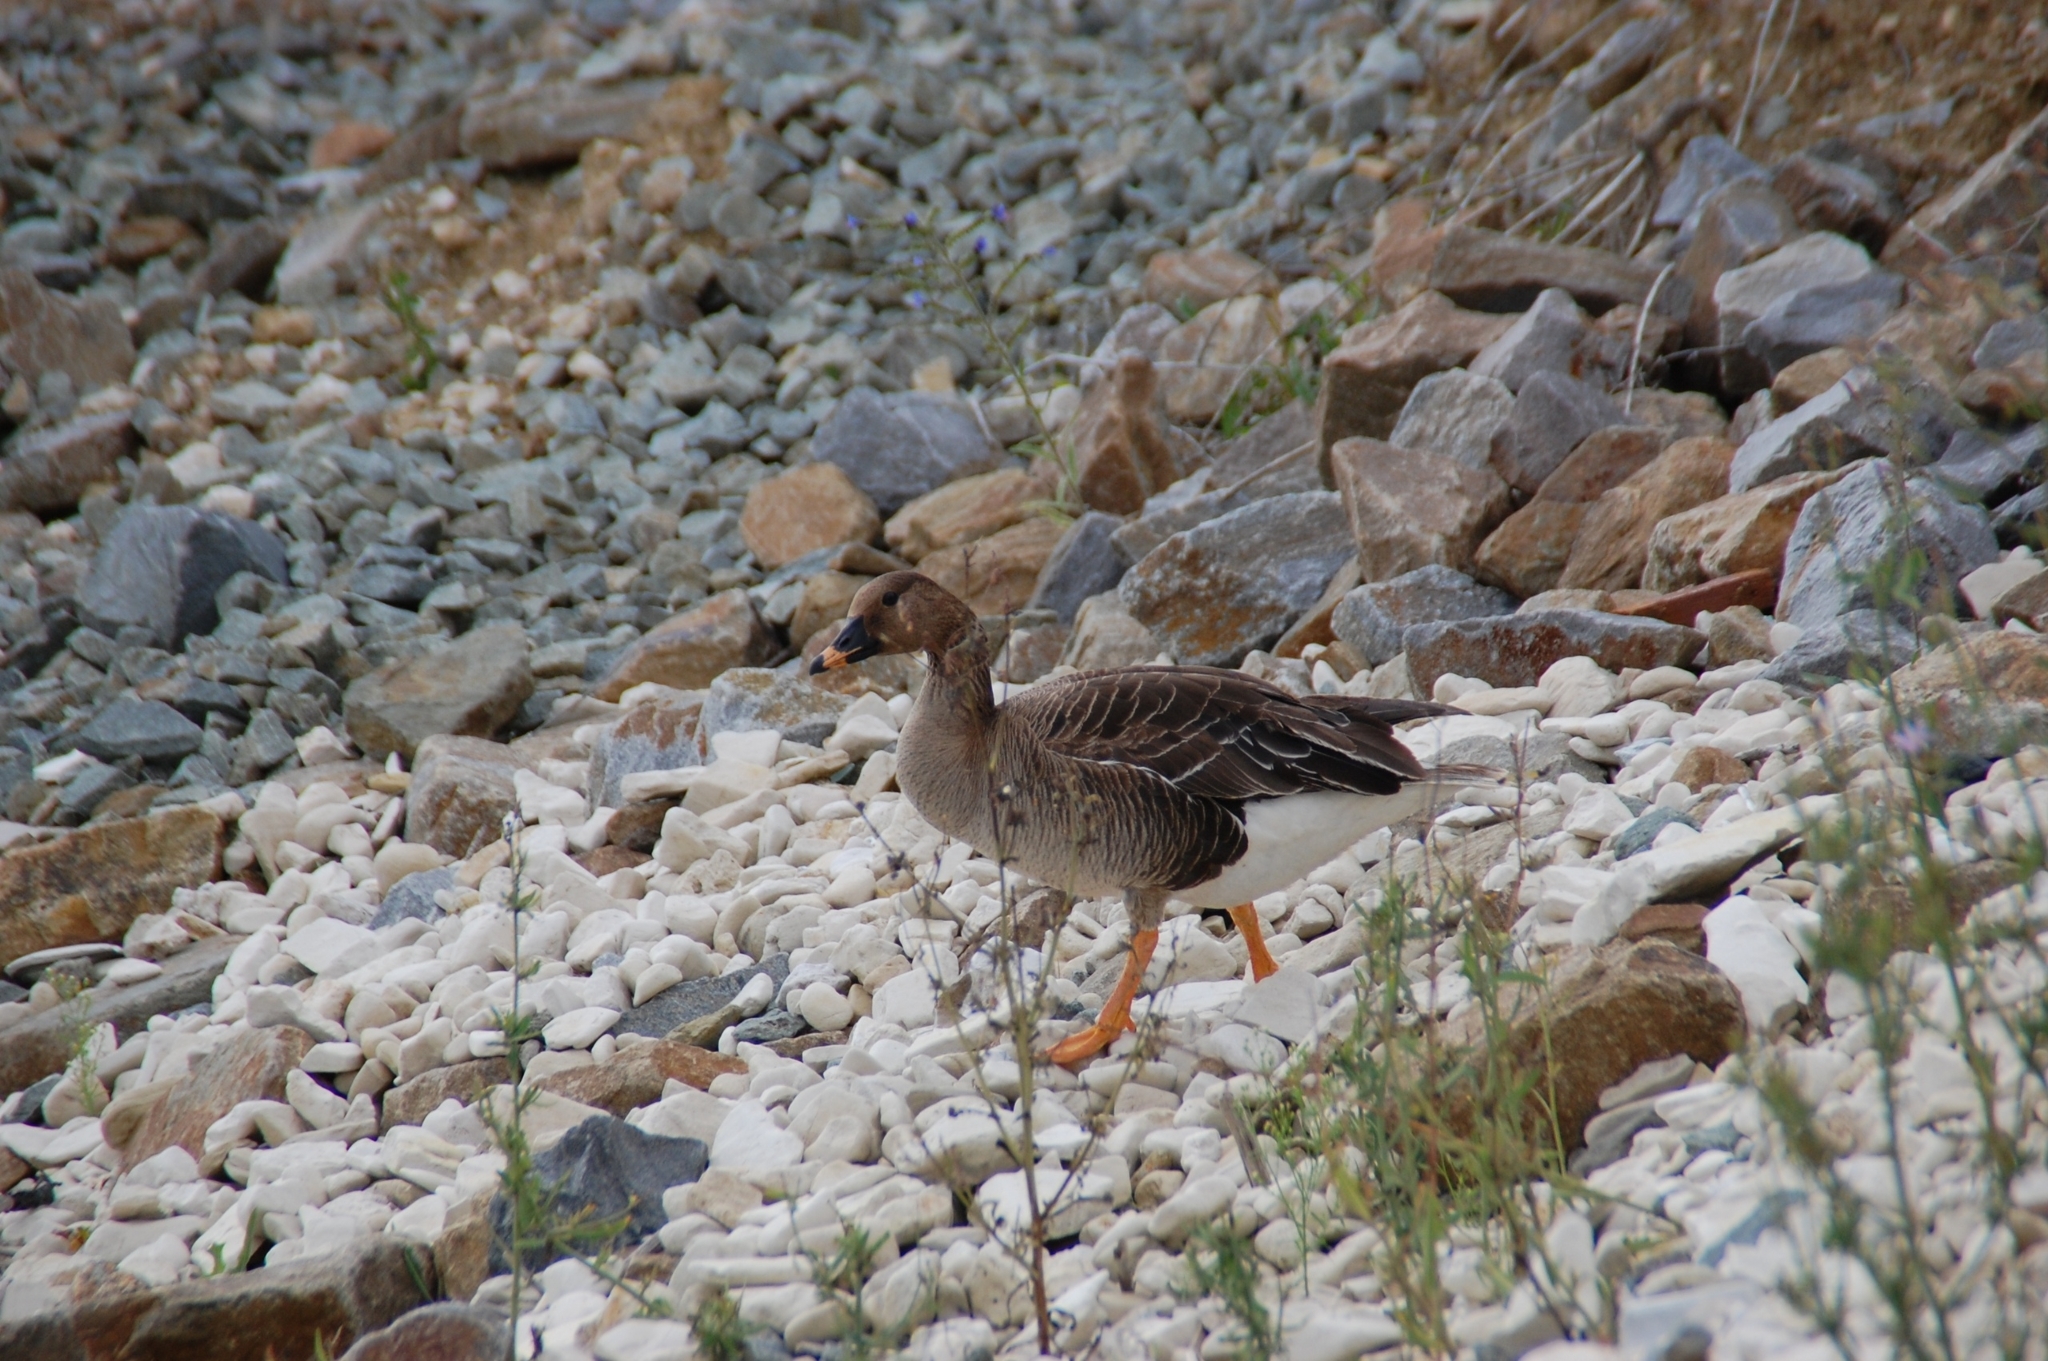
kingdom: Animalia
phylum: Chordata
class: Aves
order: Anseriformes
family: Anatidae
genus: Anser
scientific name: Anser fabalis
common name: Bean goose
